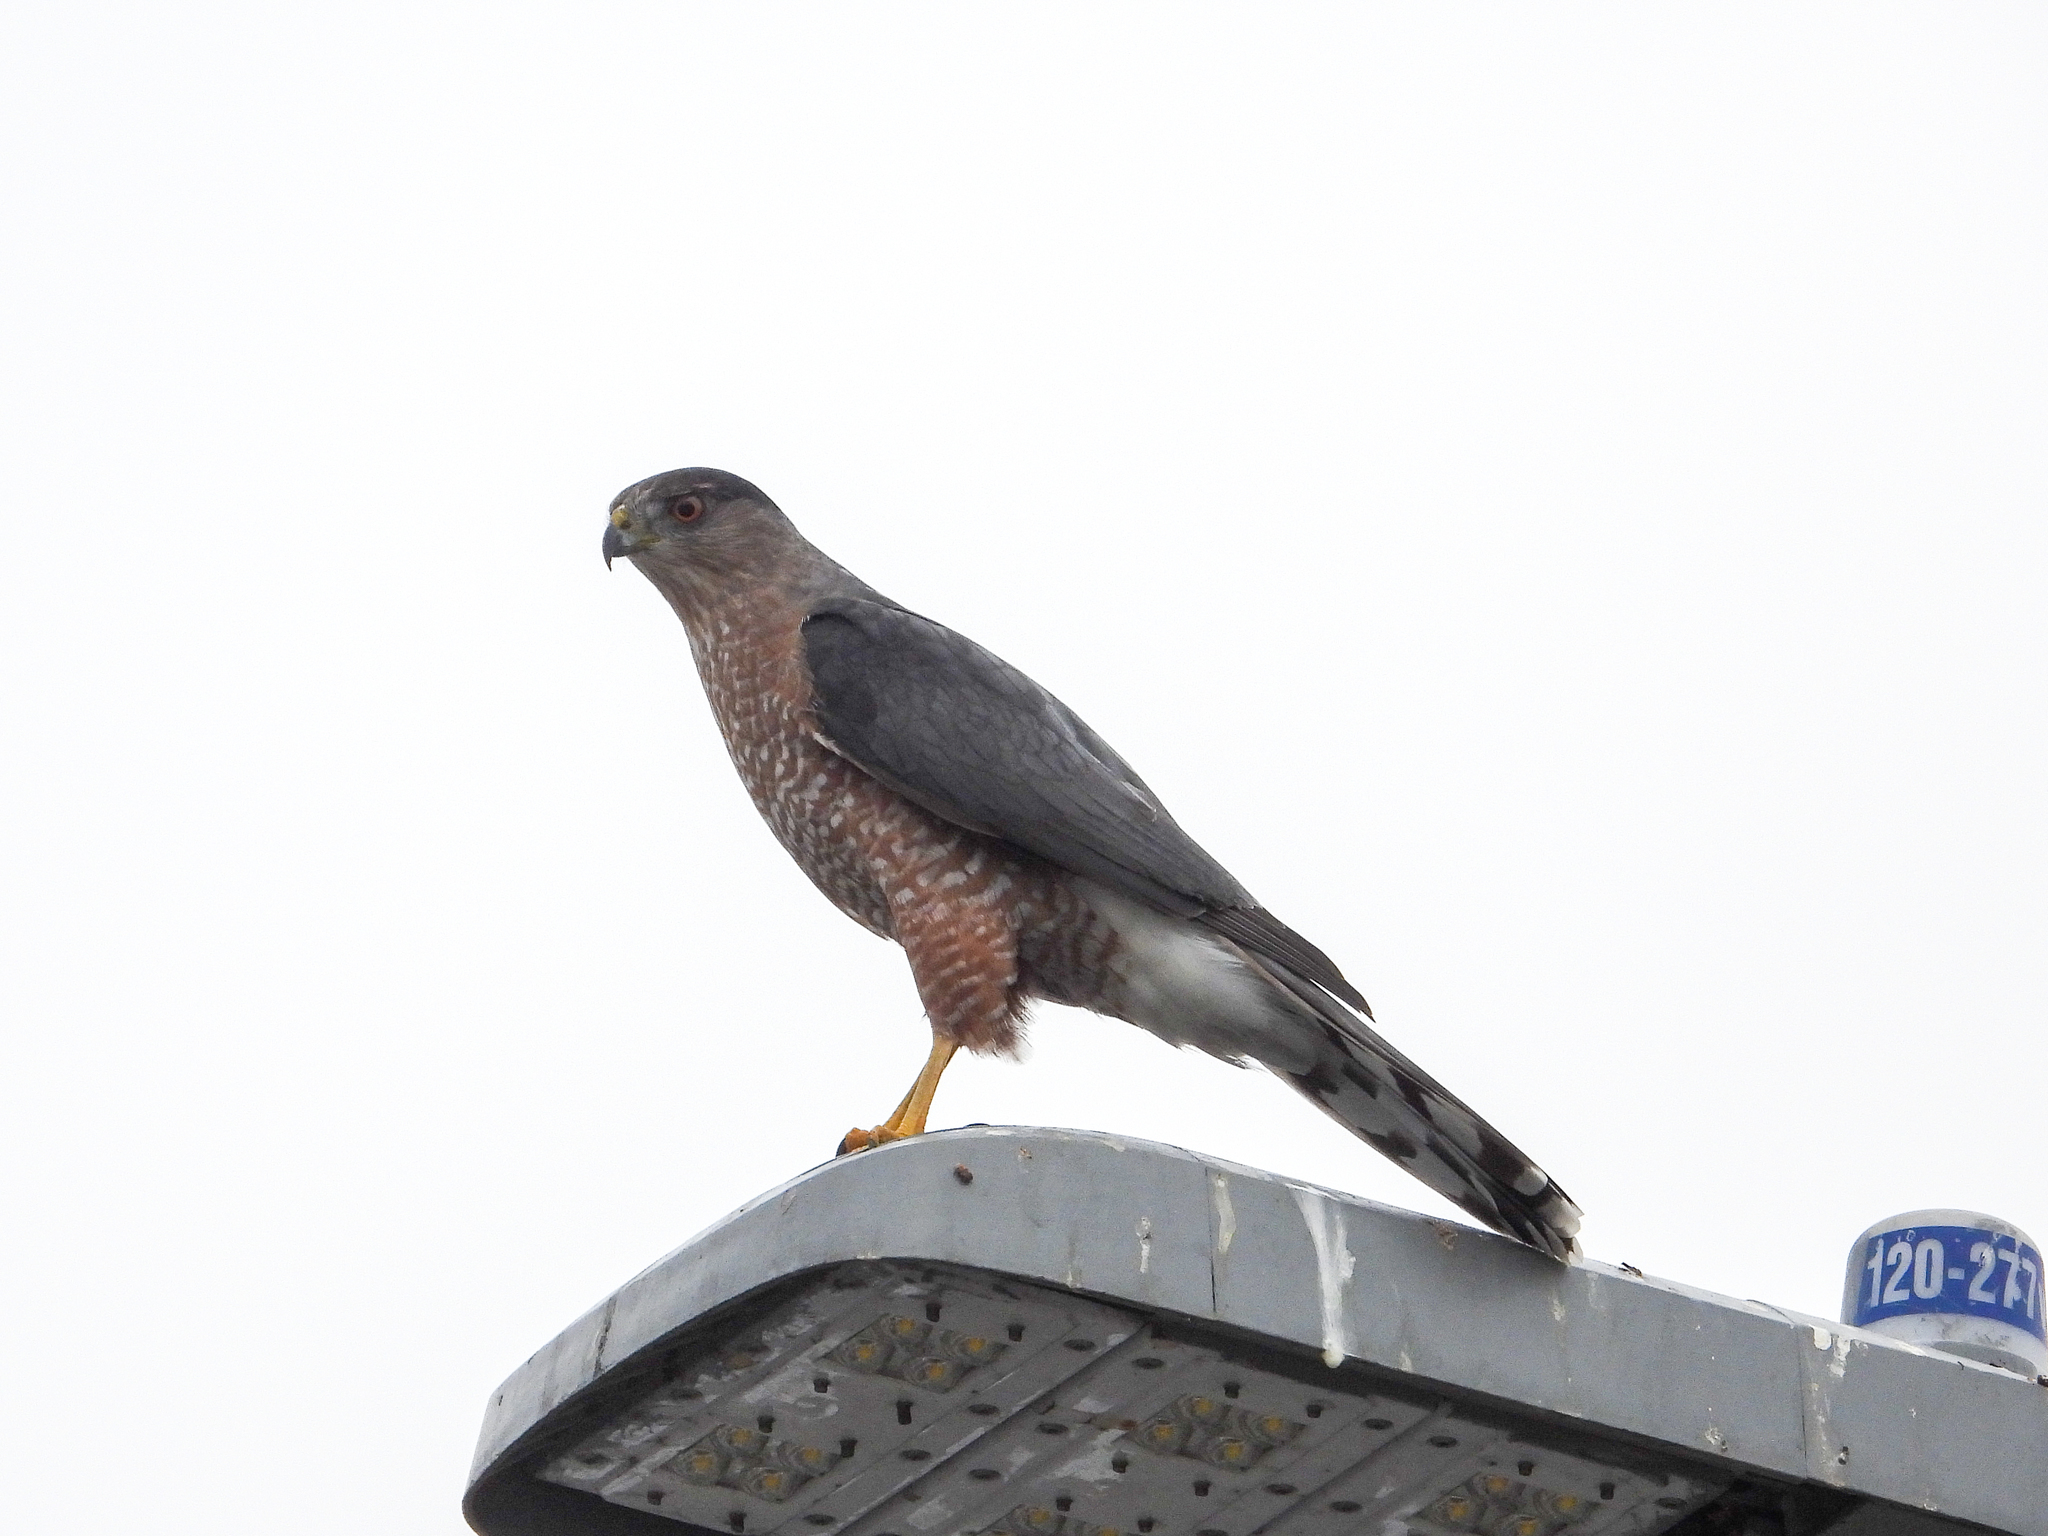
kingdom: Animalia
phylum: Chordata
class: Aves
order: Accipitriformes
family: Accipitridae
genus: Accipiter
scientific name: Accipiter cooperii
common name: Cooper's hawk
